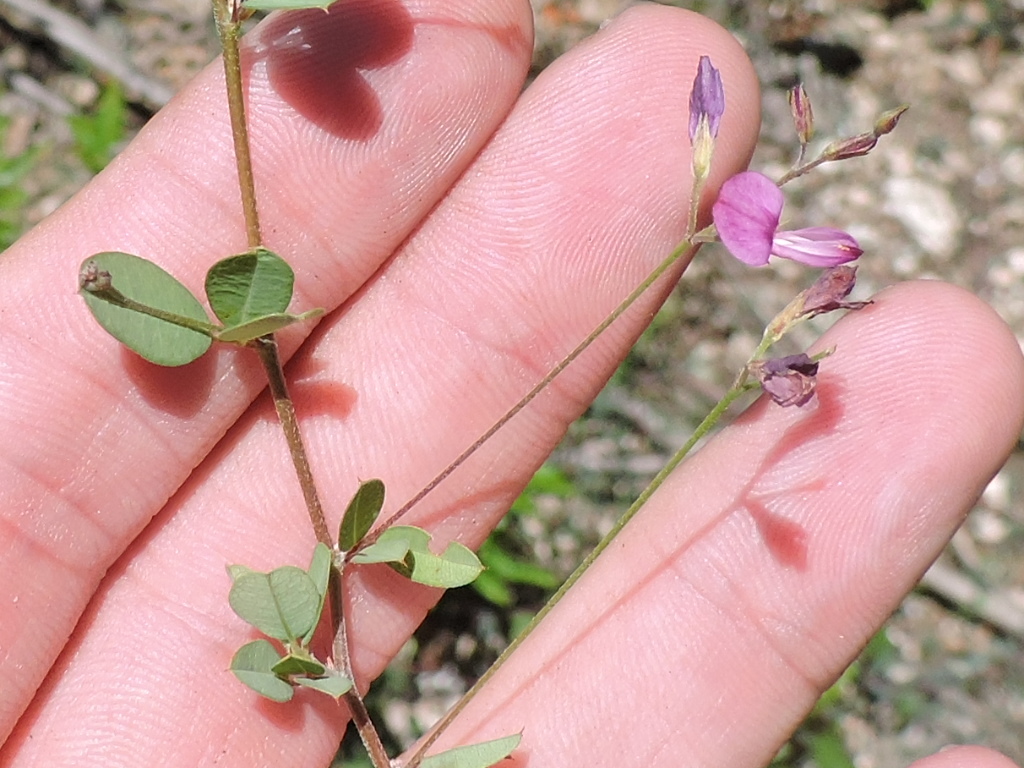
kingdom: Plantae
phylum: Tracheophyta
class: Magnoliopsida
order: Fabales
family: Fabaceae
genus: Lespedeza
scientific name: Lespedeza procumbens
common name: Downy trailing bush-clover
